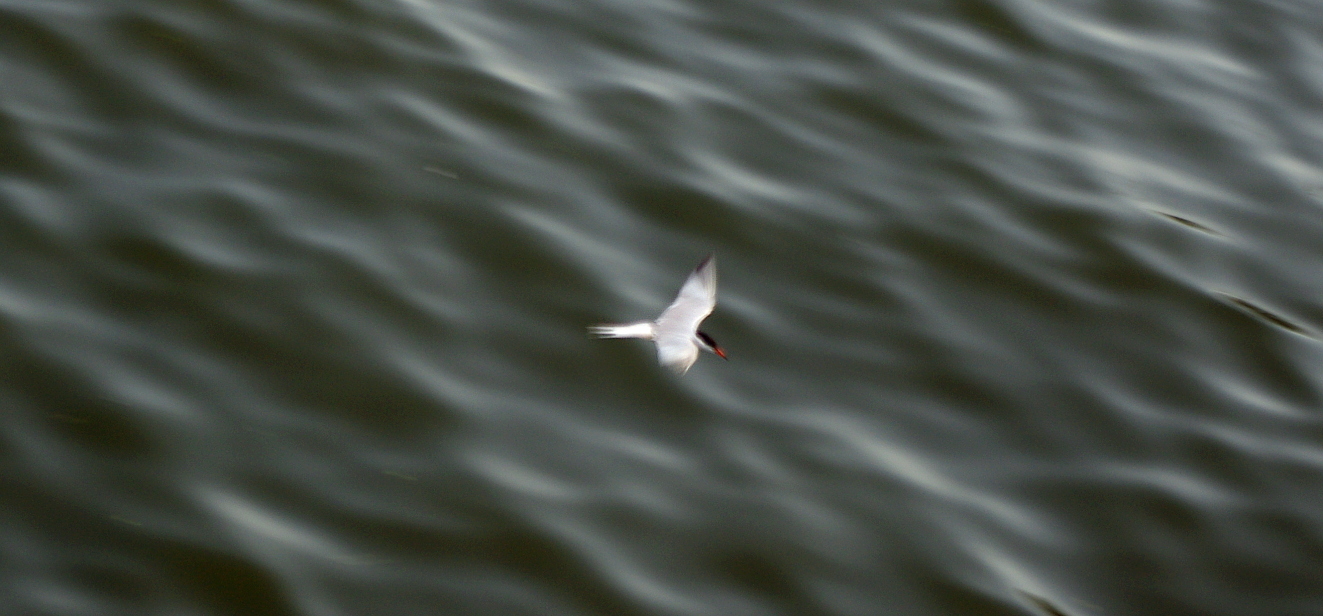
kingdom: Animalia
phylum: Chordata
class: Aves
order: Charadriiformes
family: Laridae
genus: Sterna
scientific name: Sterna hirundo
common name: Common tern
